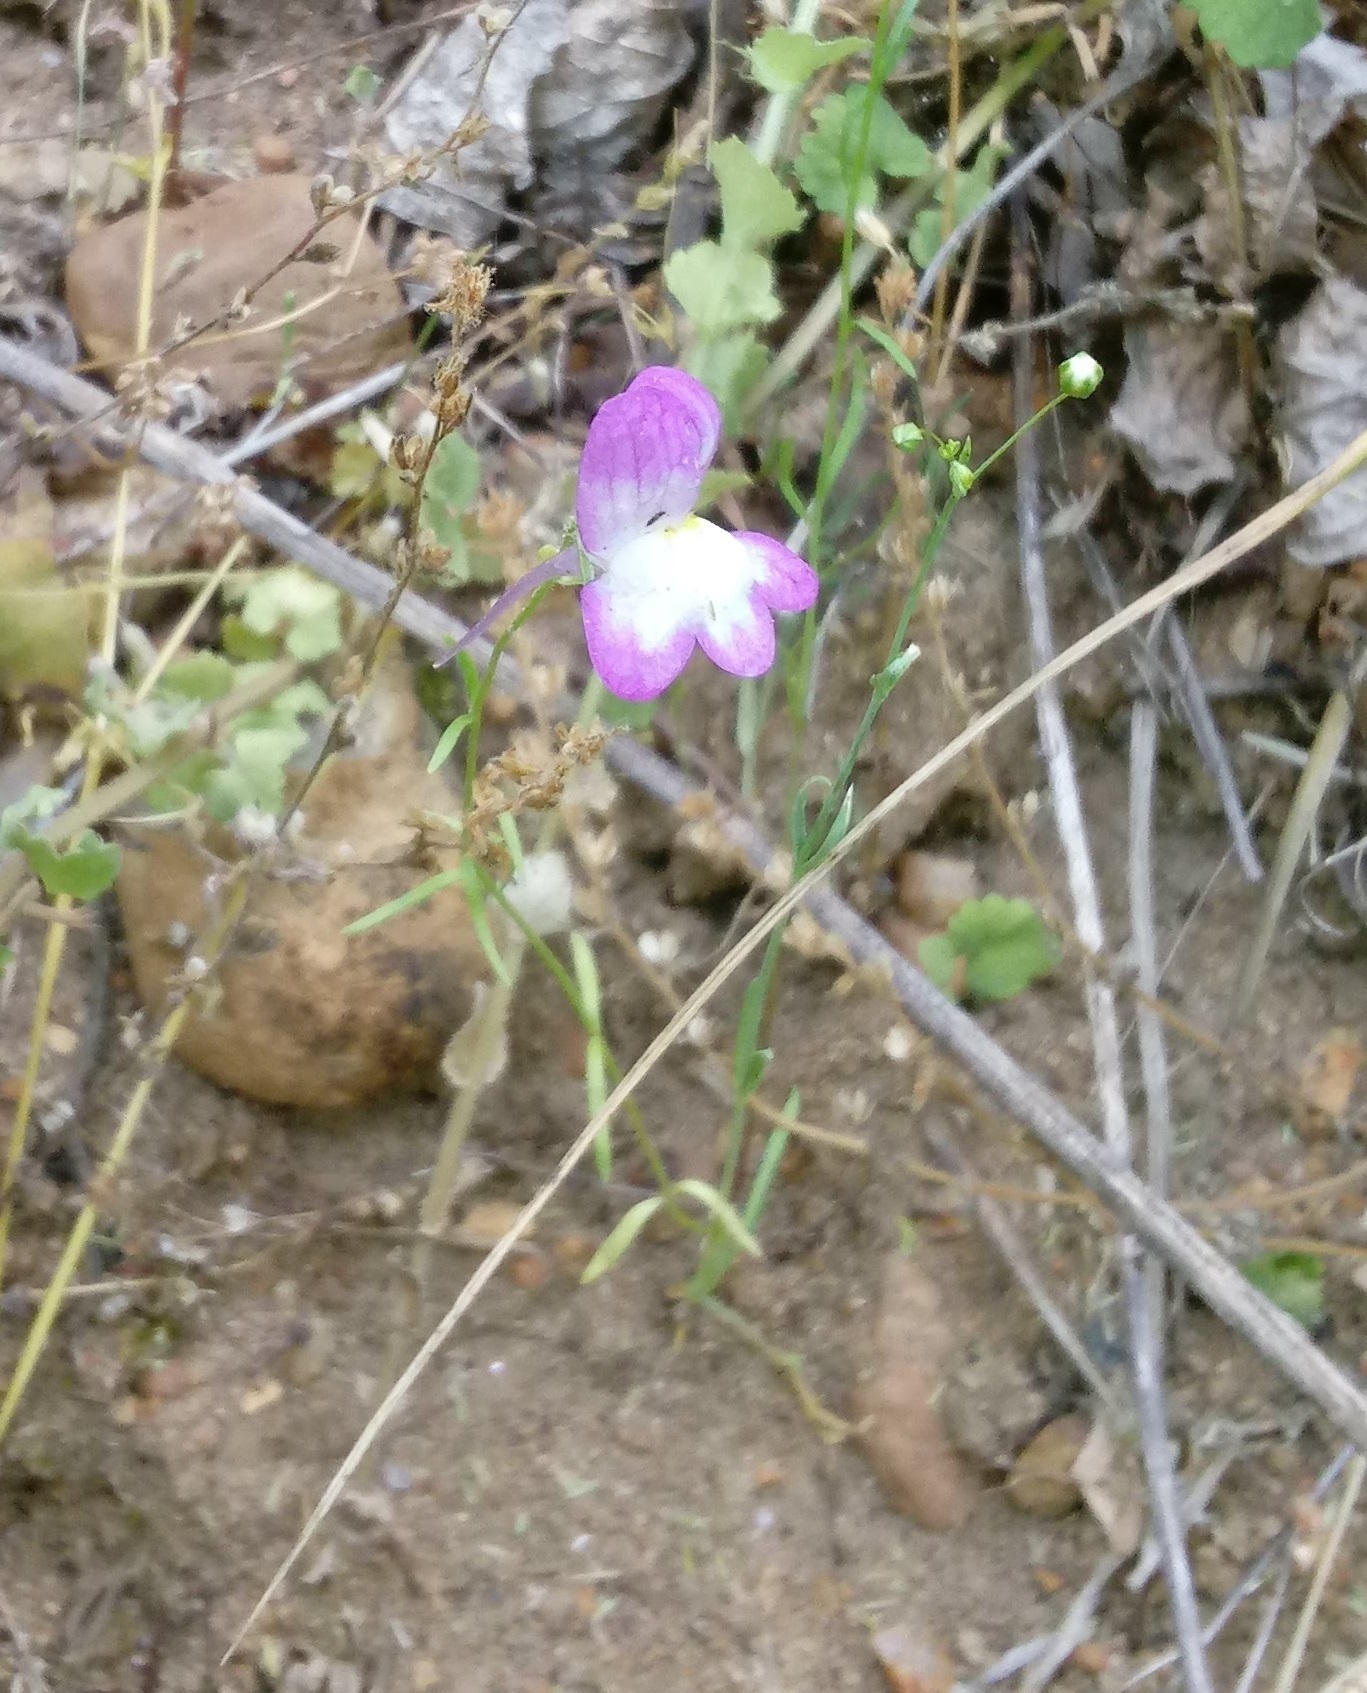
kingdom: Plantae
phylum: Tracheophyta
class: Magnoliopsida
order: Lamiales
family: Plantaginaceae
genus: Linaria
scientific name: Linaria maroccana
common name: Moroccan toadflax
